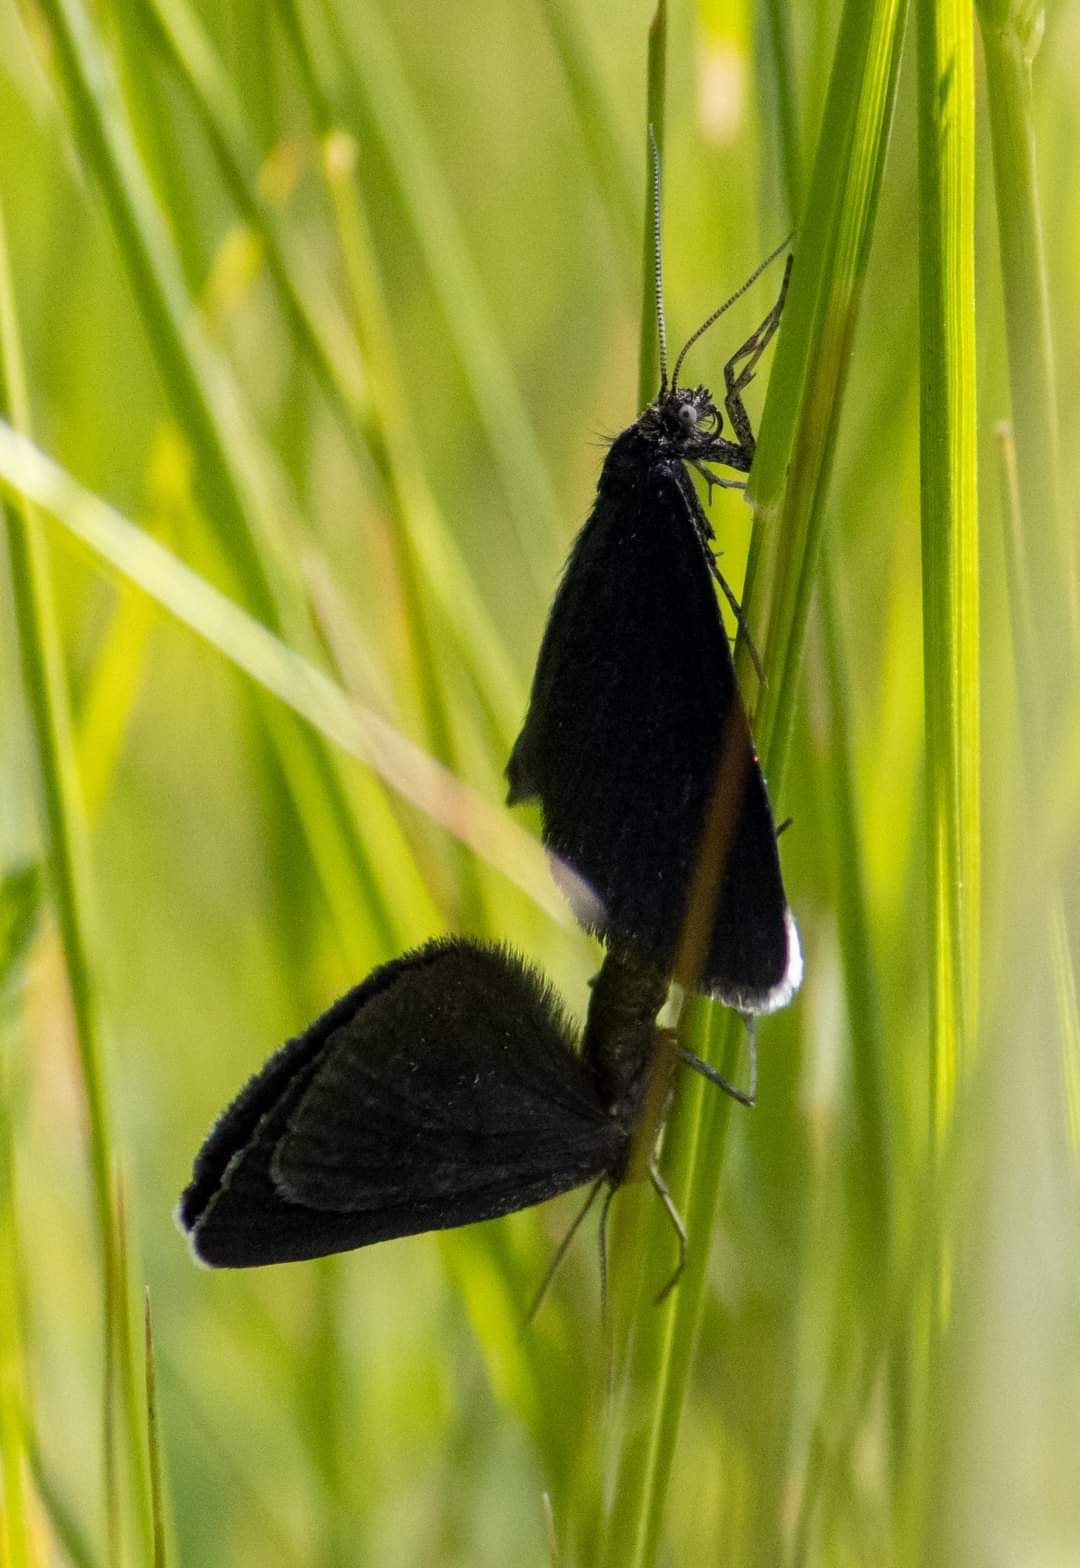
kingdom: Animalia
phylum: Arthropoda
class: Insecta
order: Lepidoptera
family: Geometridae
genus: Odezia
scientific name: Odezia atrata
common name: Chimney sweeper
